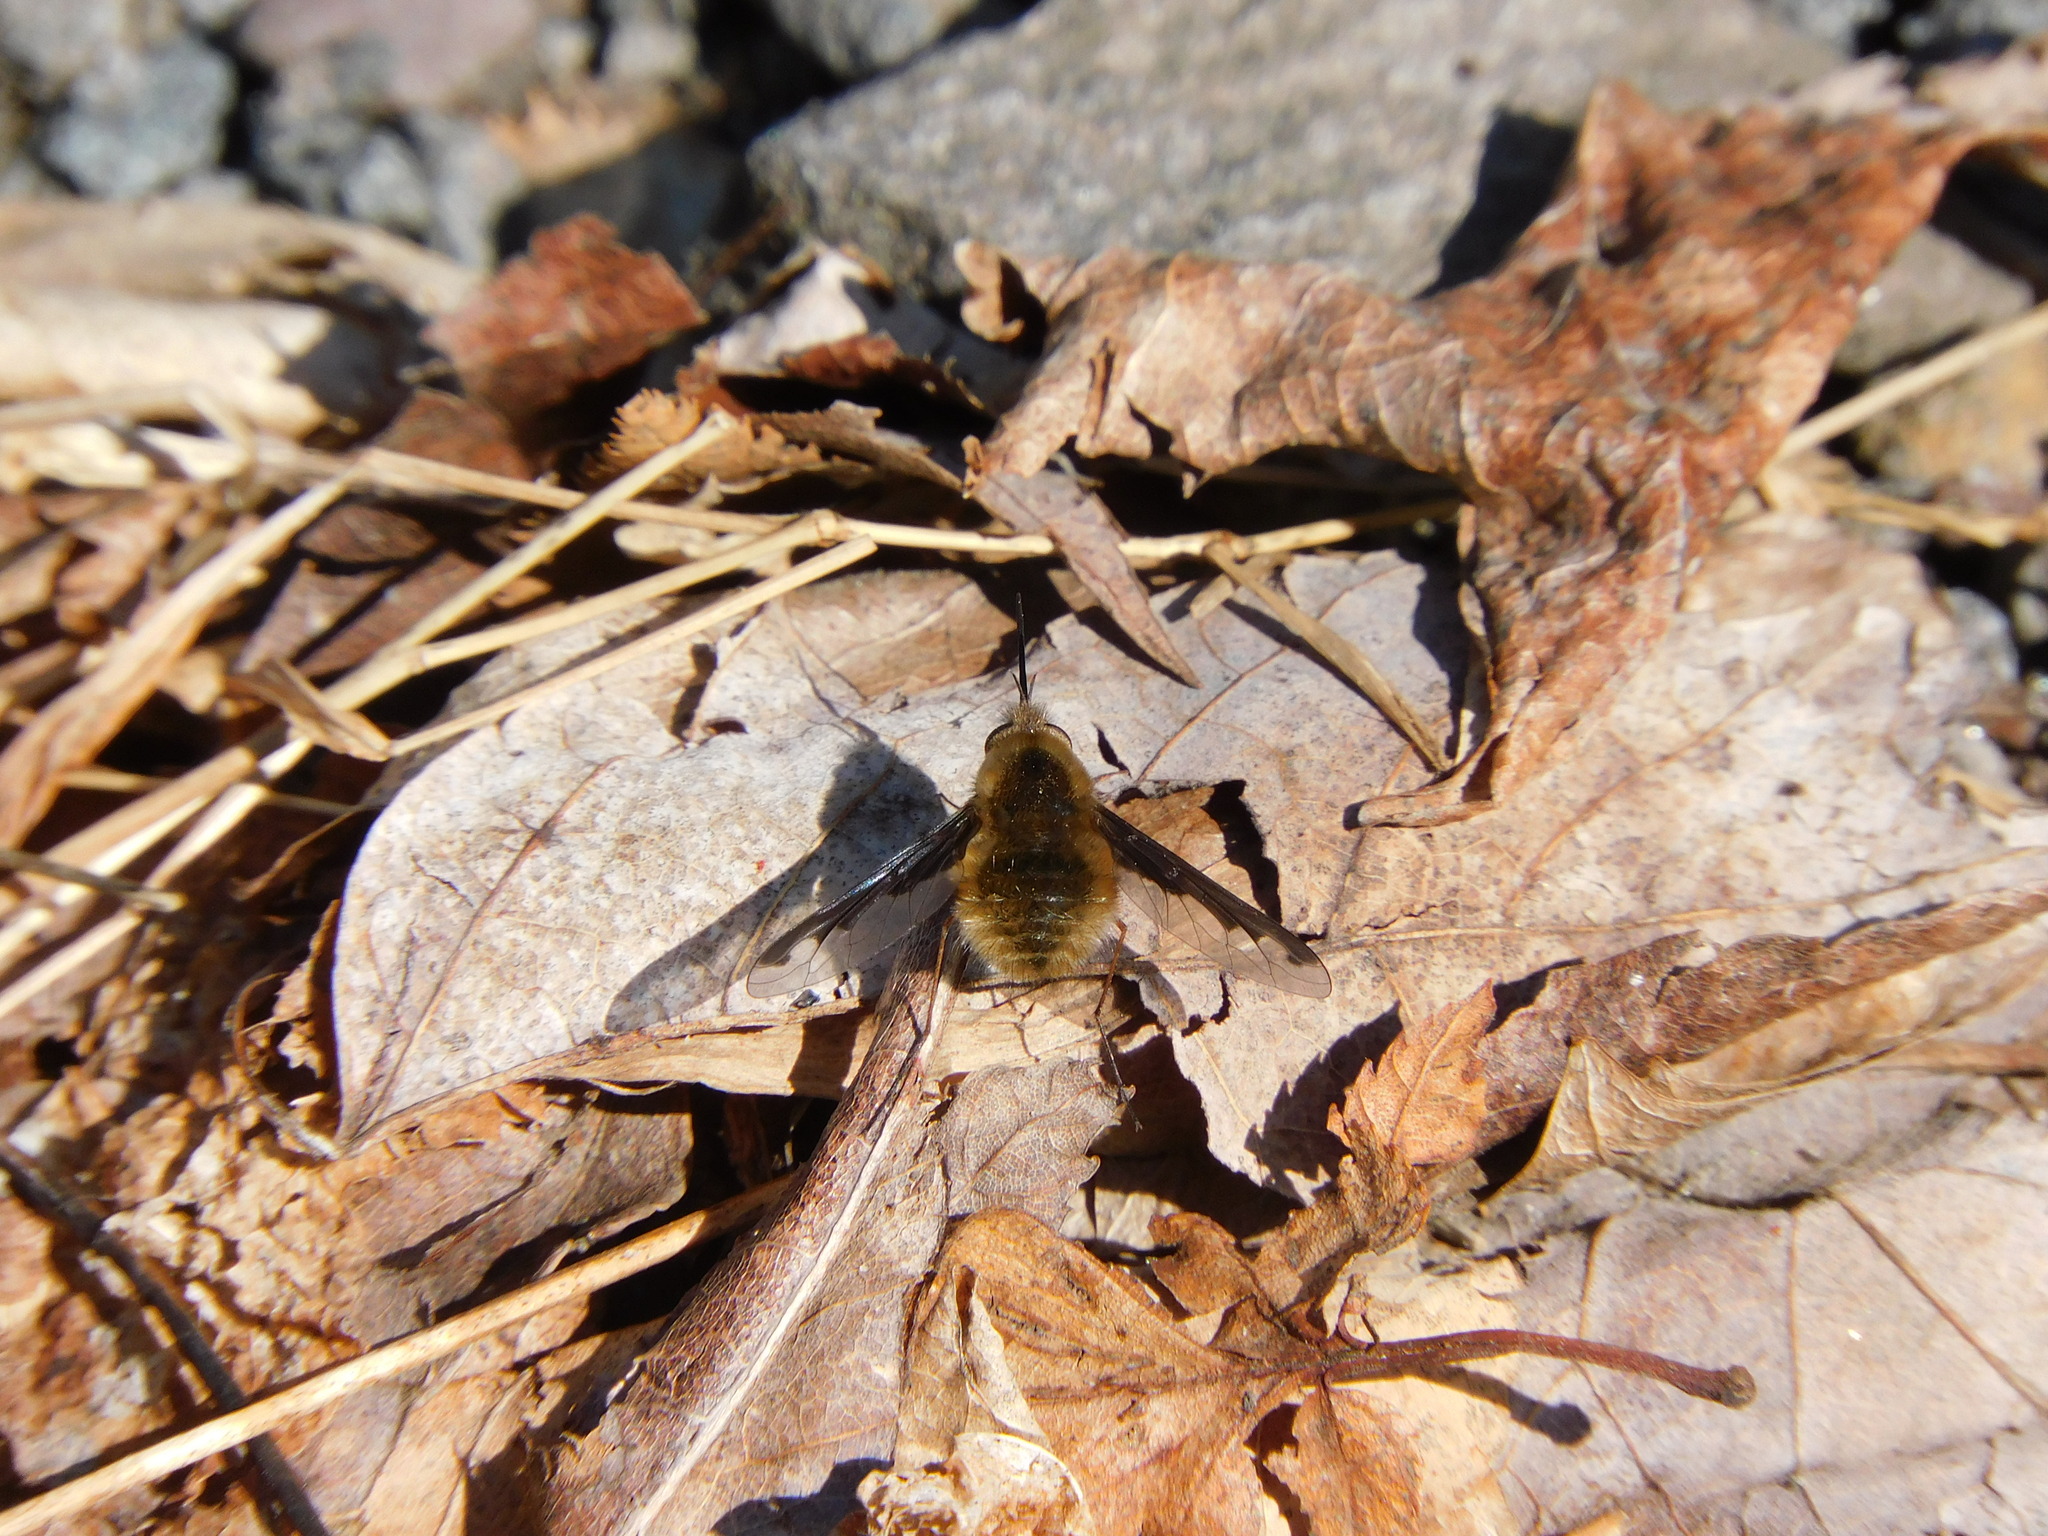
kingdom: Animalia
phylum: Arthropoda
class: Insecta
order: Diptera
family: Bombyliidae
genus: Bombylius
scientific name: Bombylius major
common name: Bee fly
